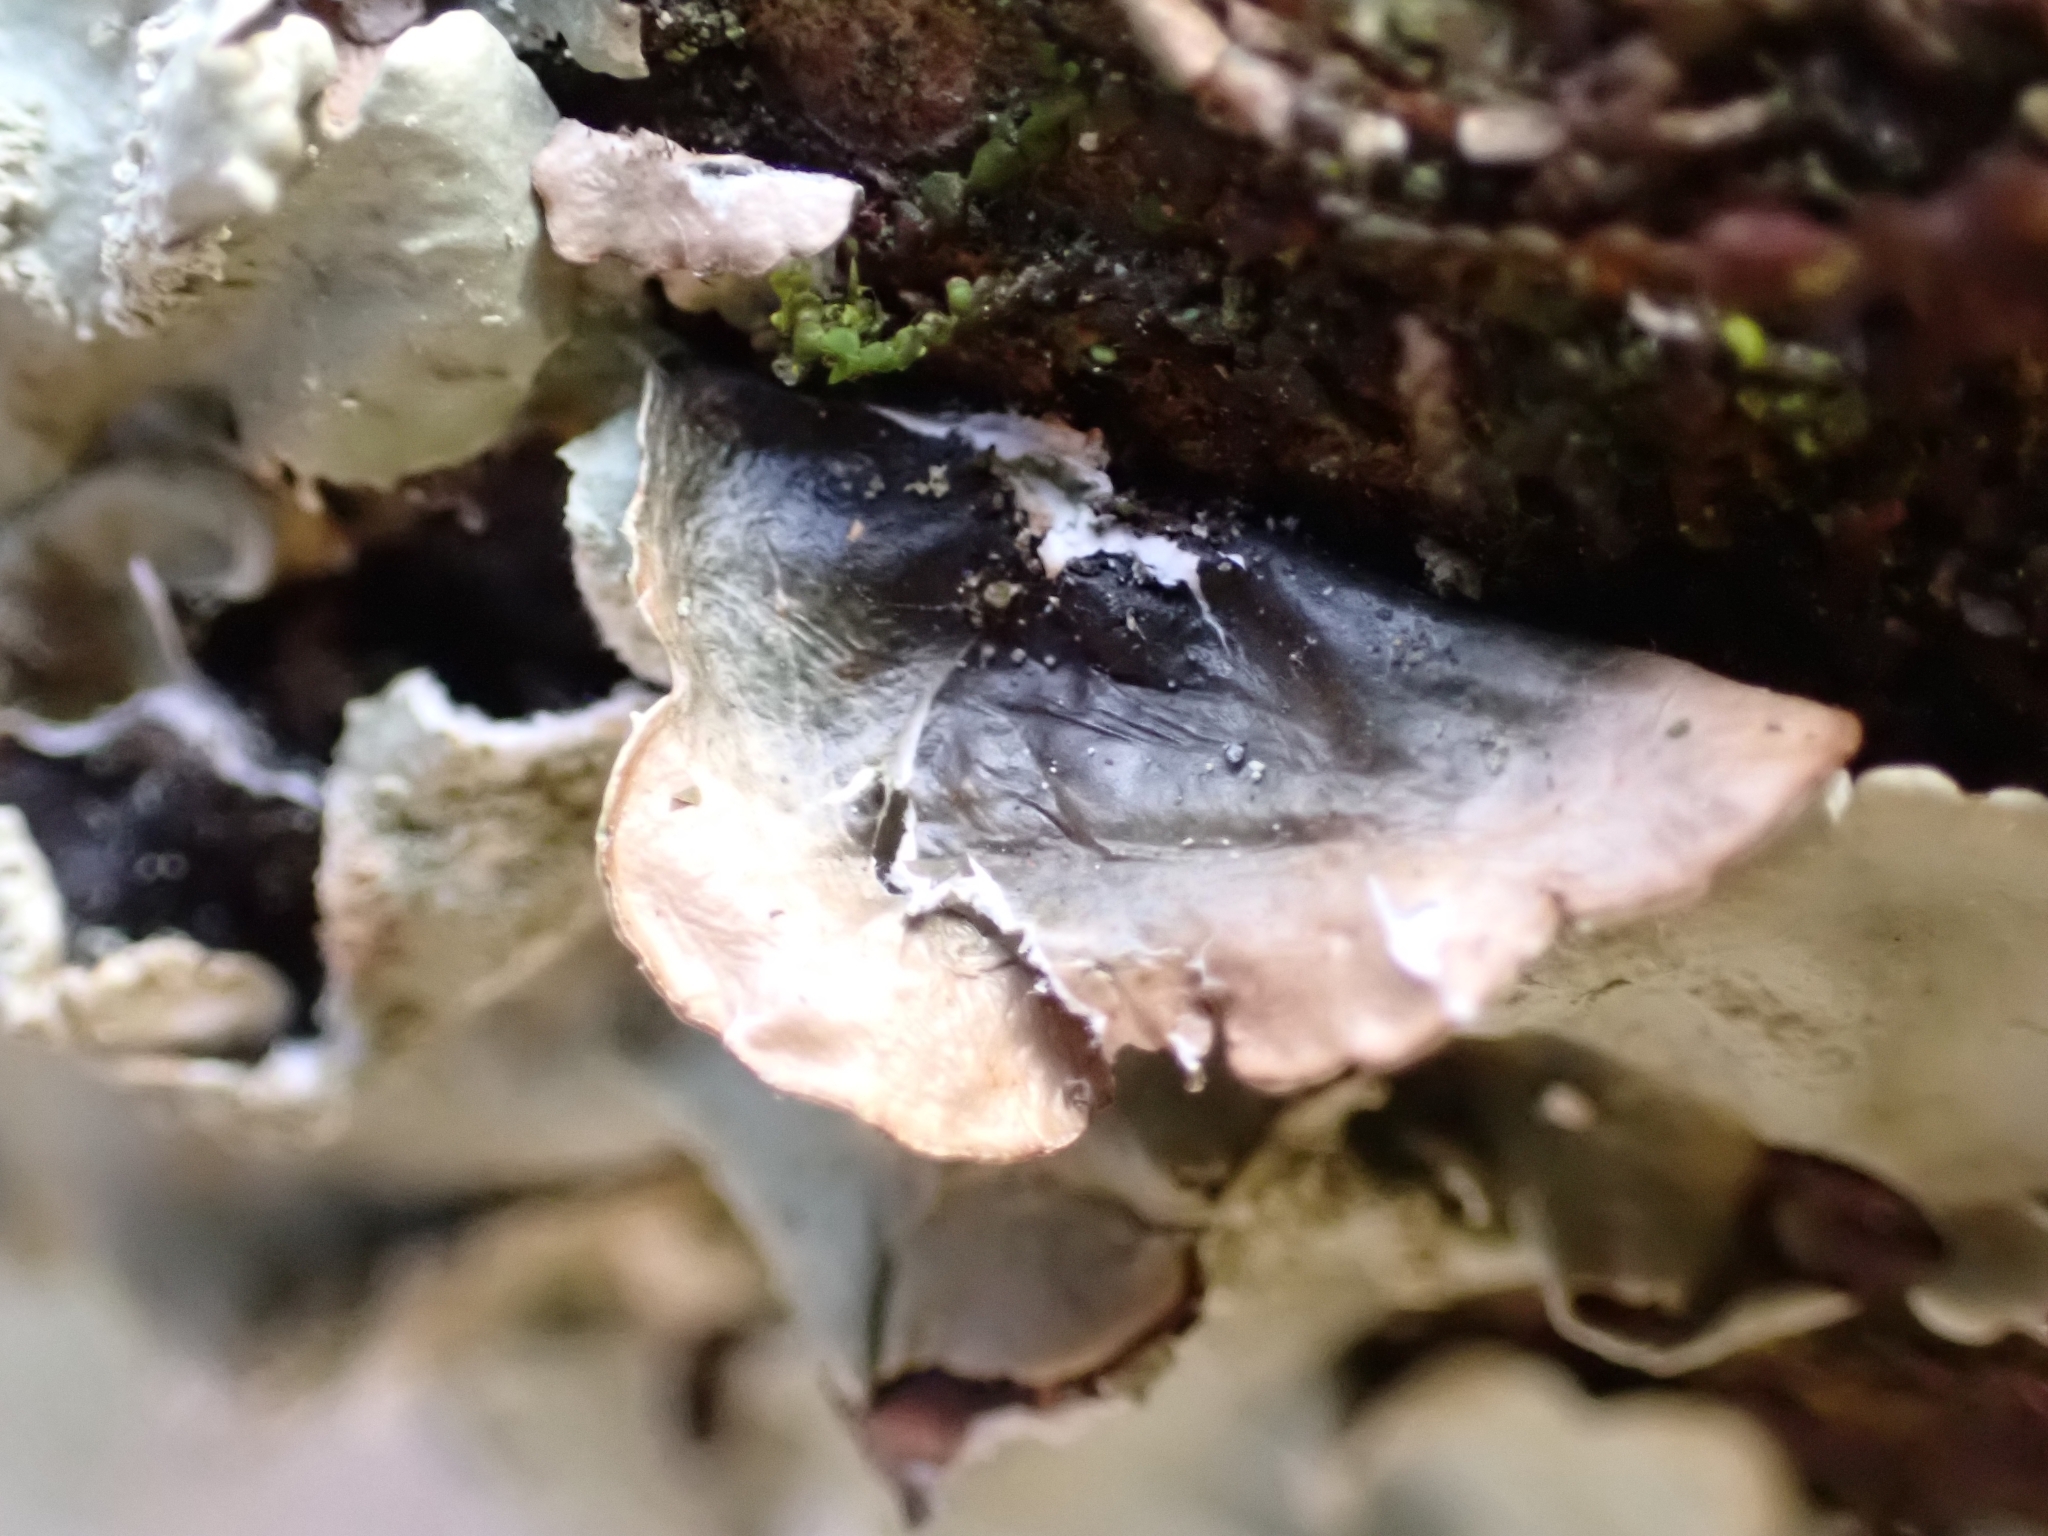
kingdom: Fungi
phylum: Ascomycota
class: Lecanoromycetes
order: Lecanorales
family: Parmeliaceae
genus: Flavoparmelia
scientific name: Flavoparmelia caperata
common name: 40-mile per hour lichen
